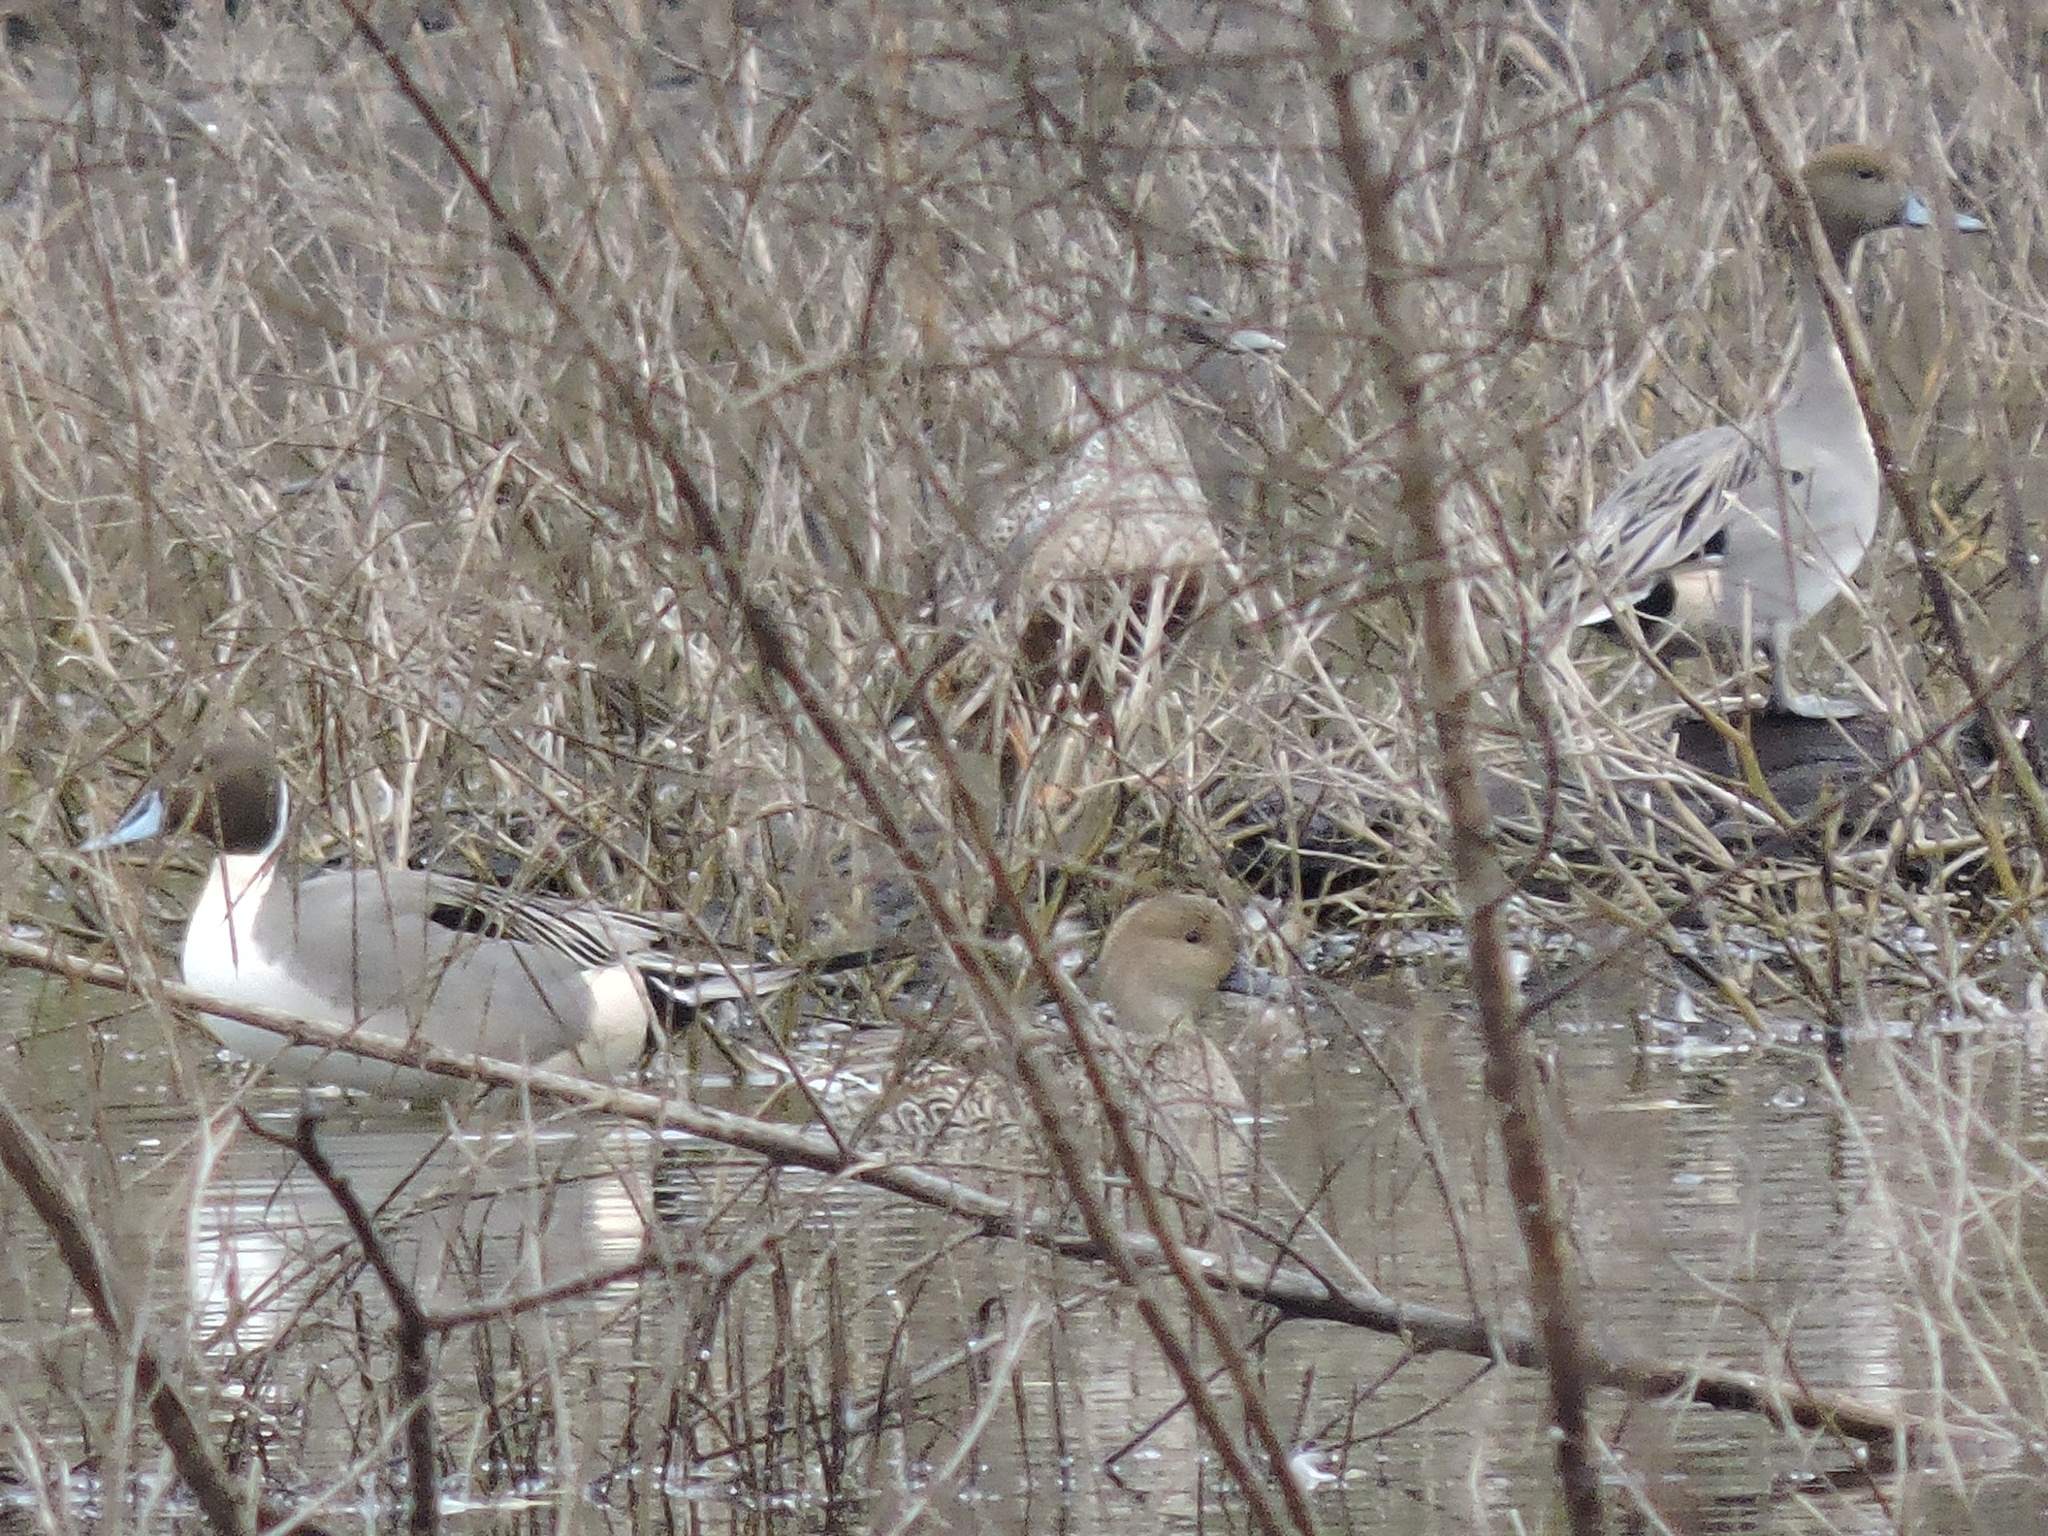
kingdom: Animalia
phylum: Chordata
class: Aves
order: Passeriformes
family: Tyrannidae
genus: Sayornis
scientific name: Sayornis phoebe
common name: Eastern phoebe
